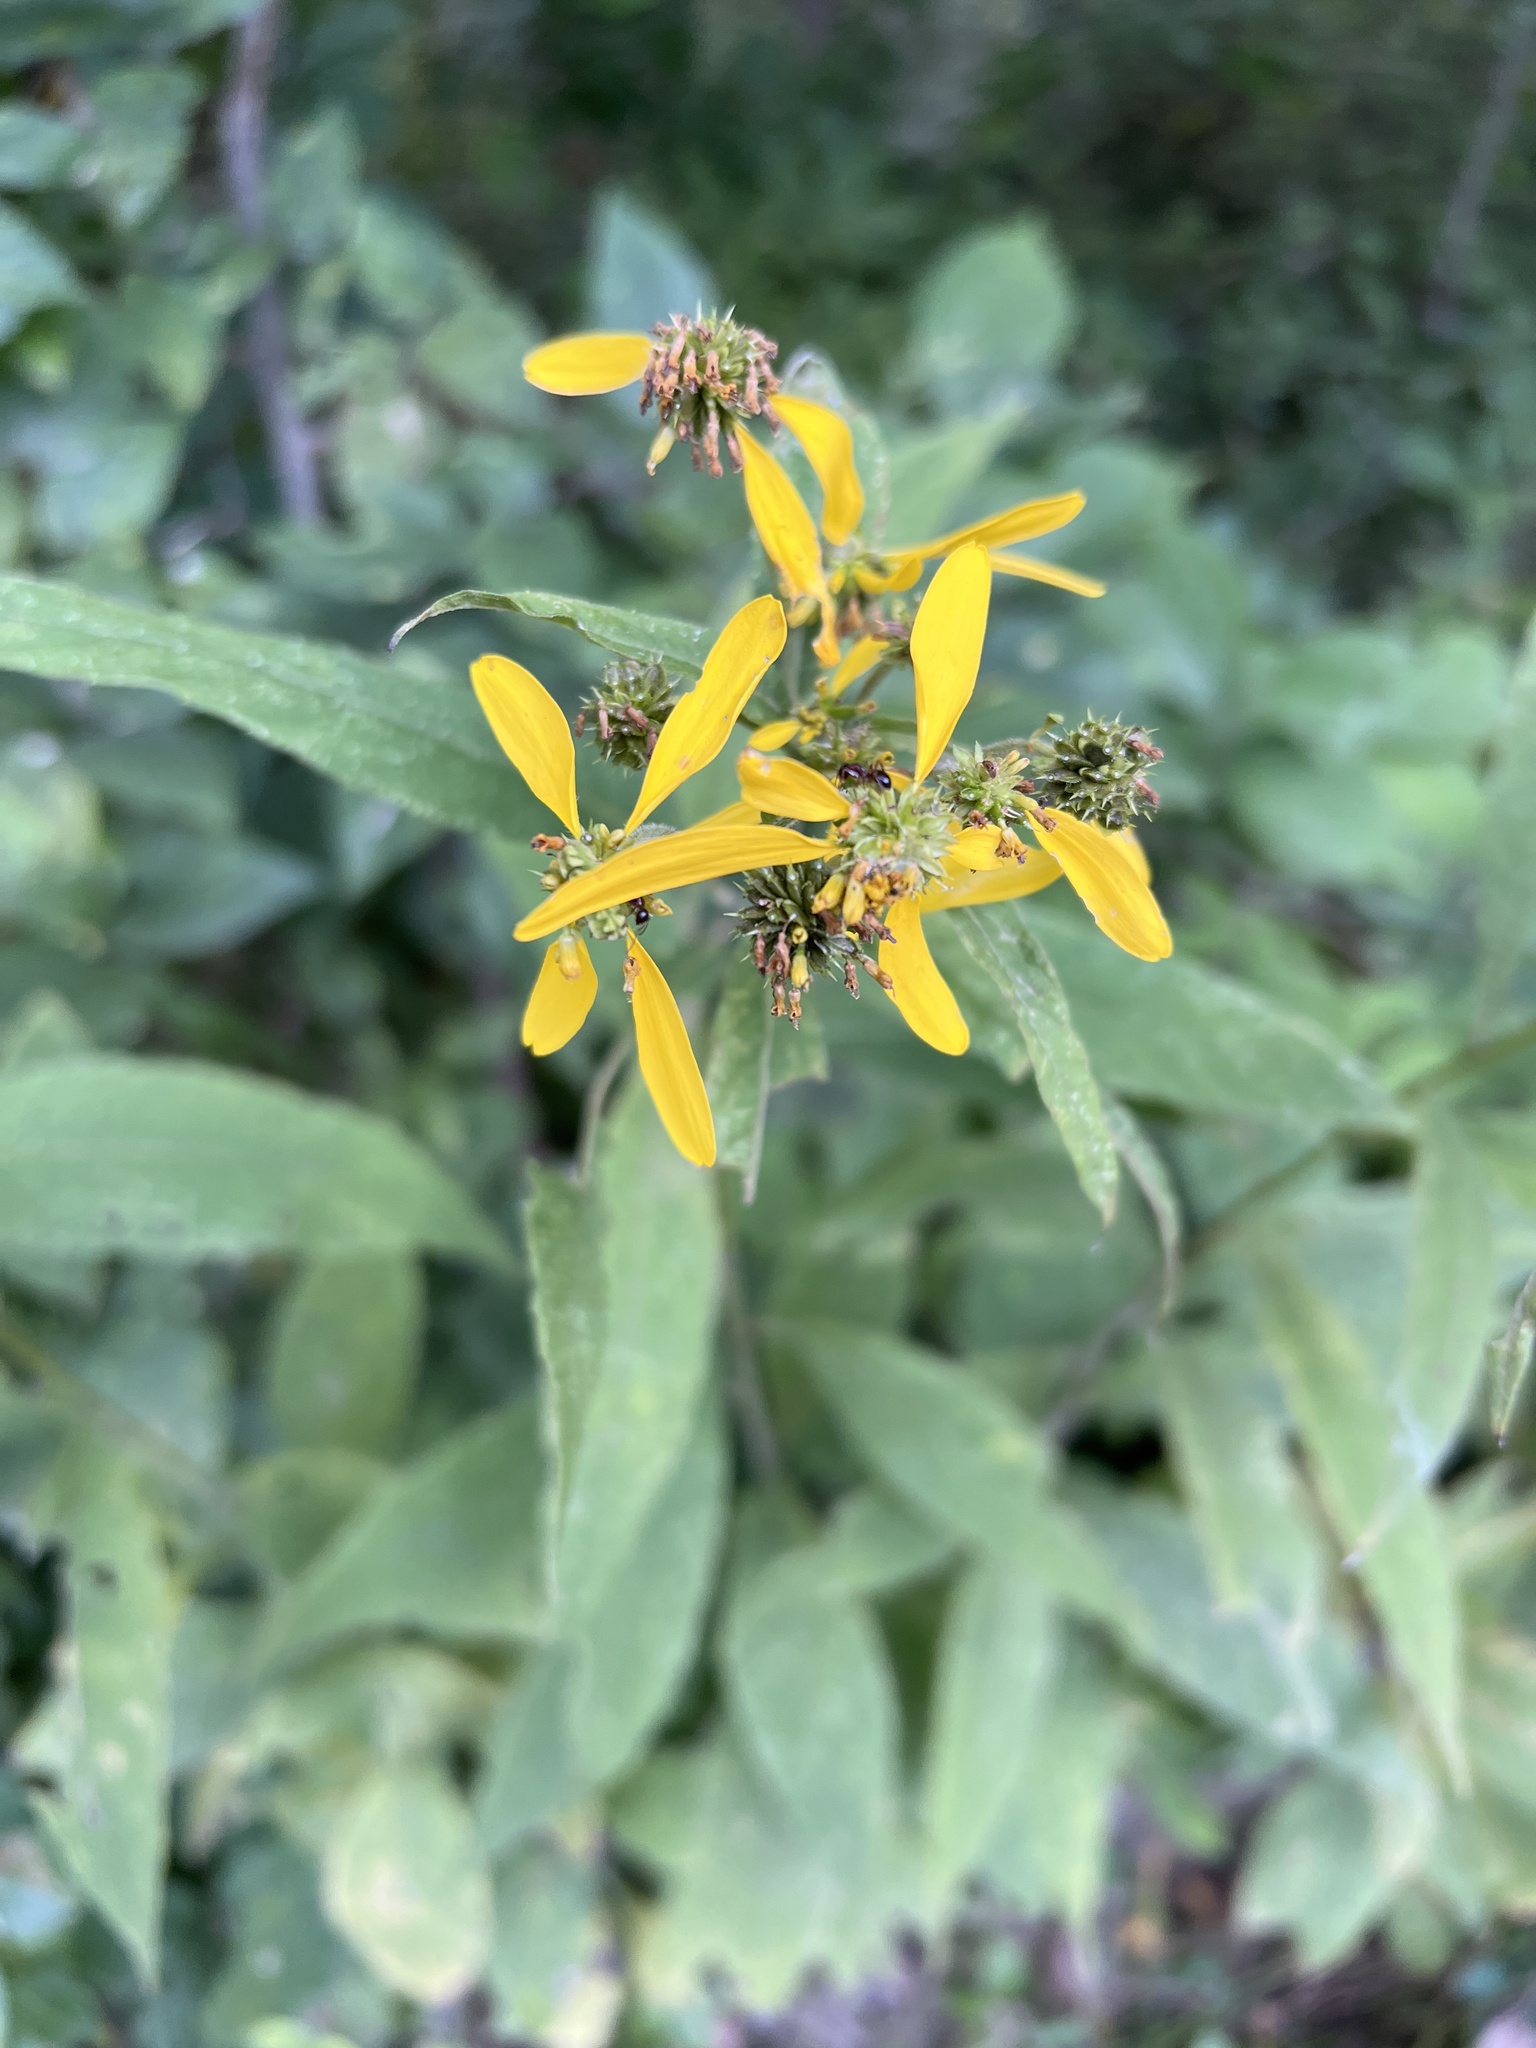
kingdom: Plantae
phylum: Tracheophyta
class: Magnoliopsida
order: Asterales
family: Asteraceae
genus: Verbesina
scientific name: Verbesina alternifolia
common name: Wingstem
